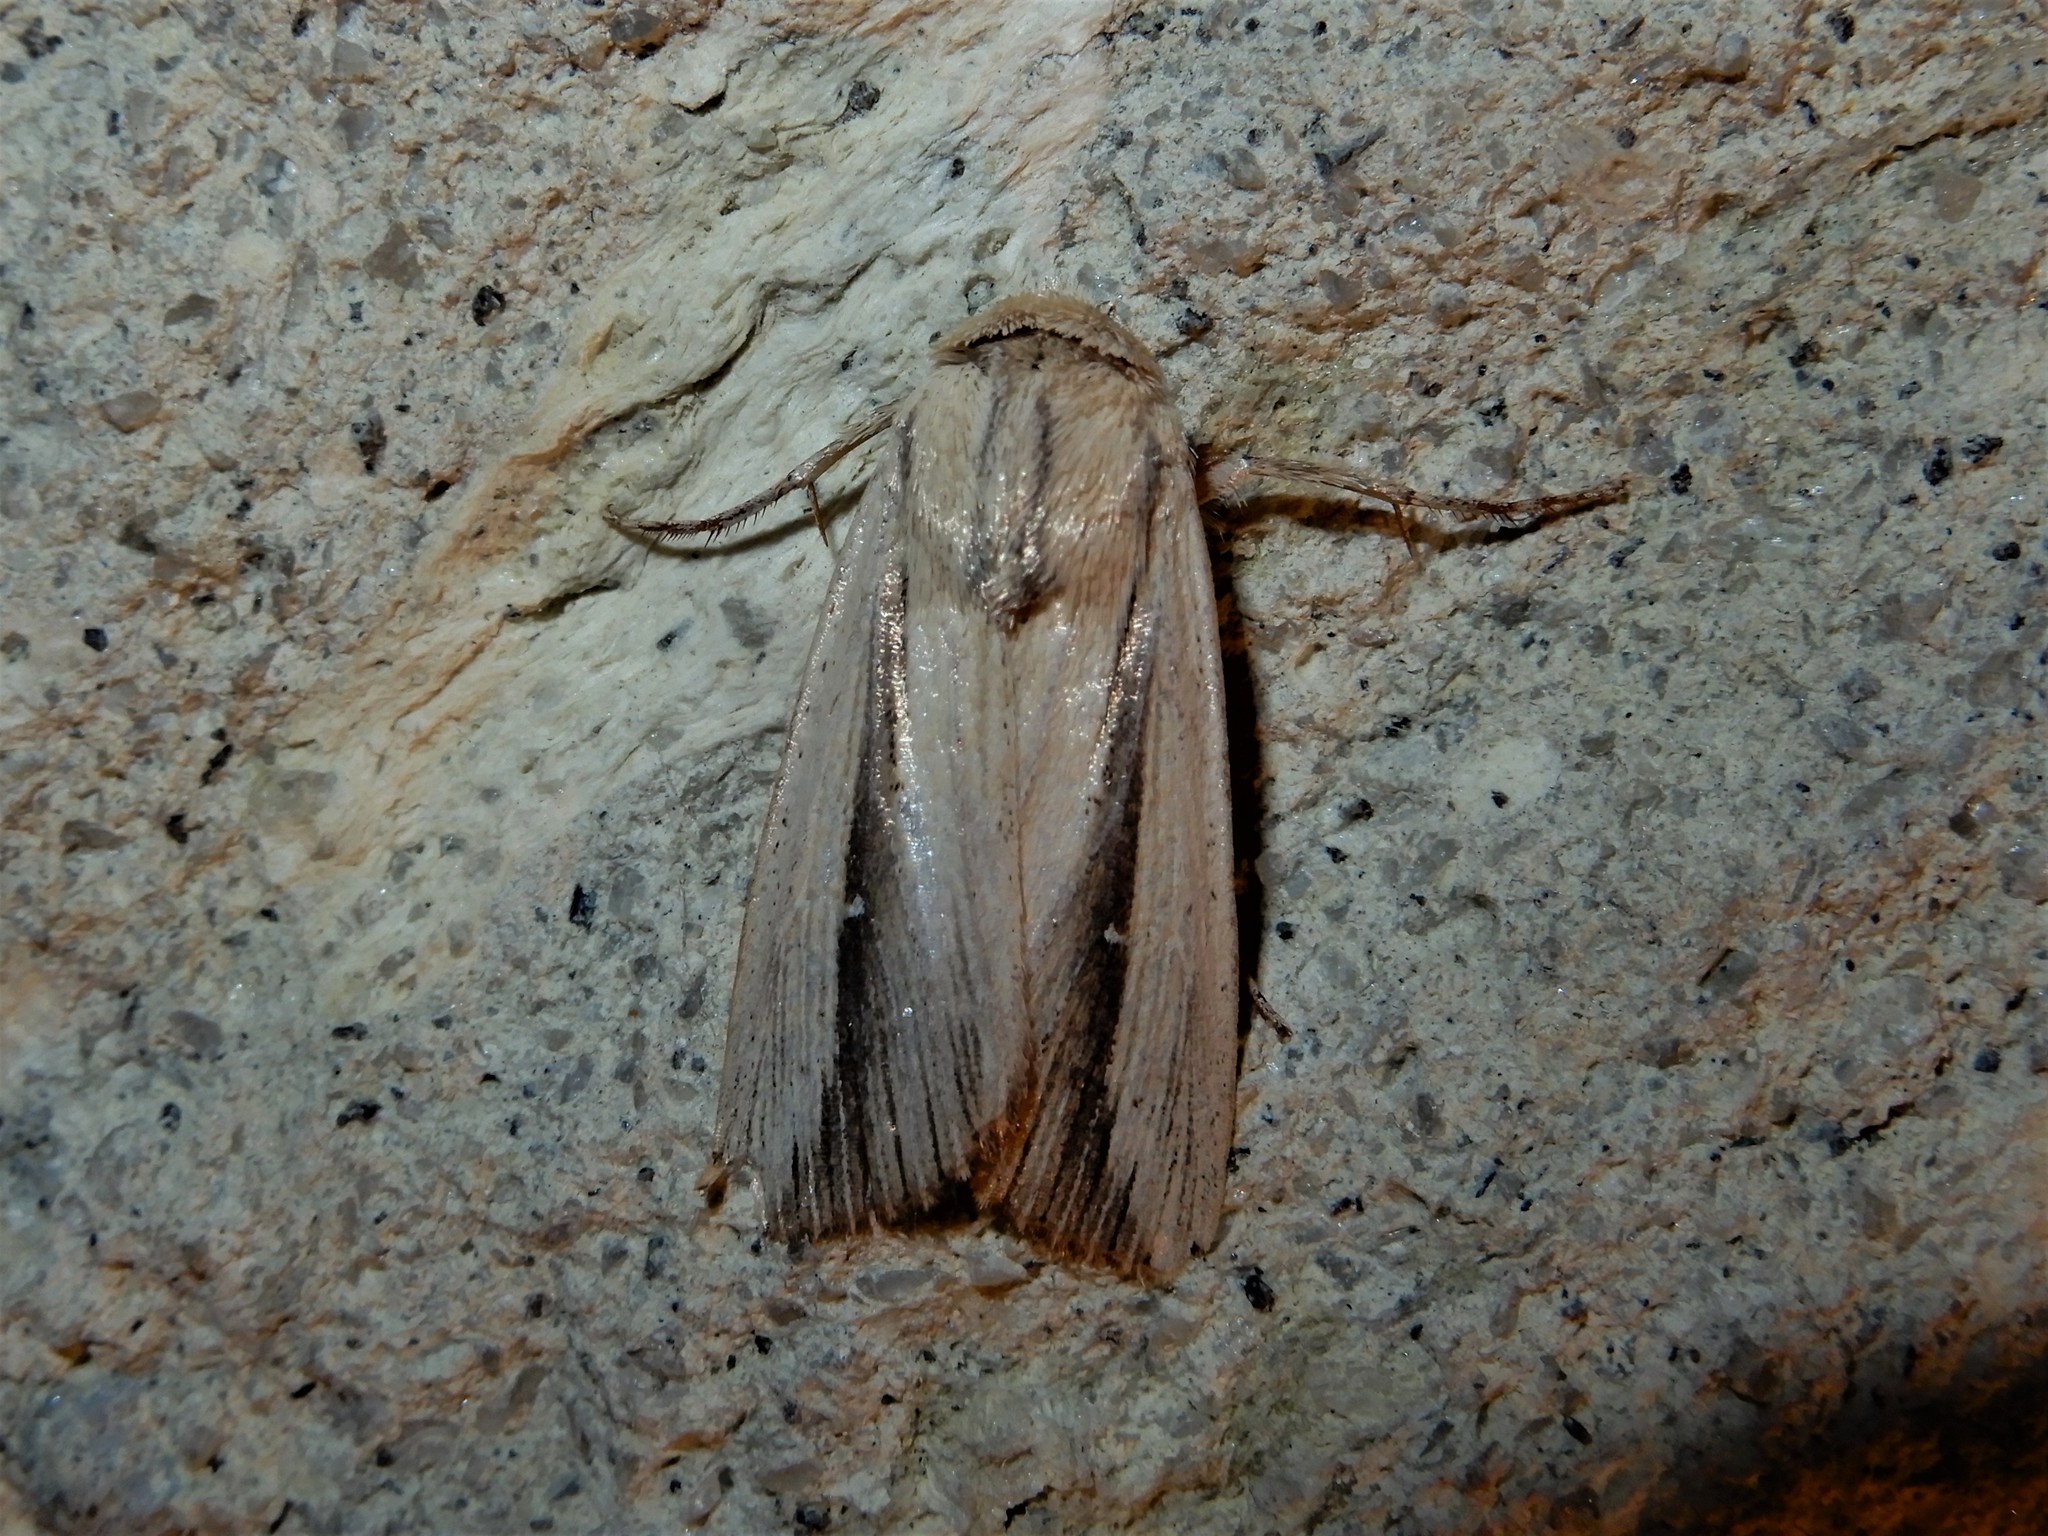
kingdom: Animalia
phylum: Arthropoda
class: Insecta
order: Lepidoptera
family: Noctuidae
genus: Leucania
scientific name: Leucania stenographa
